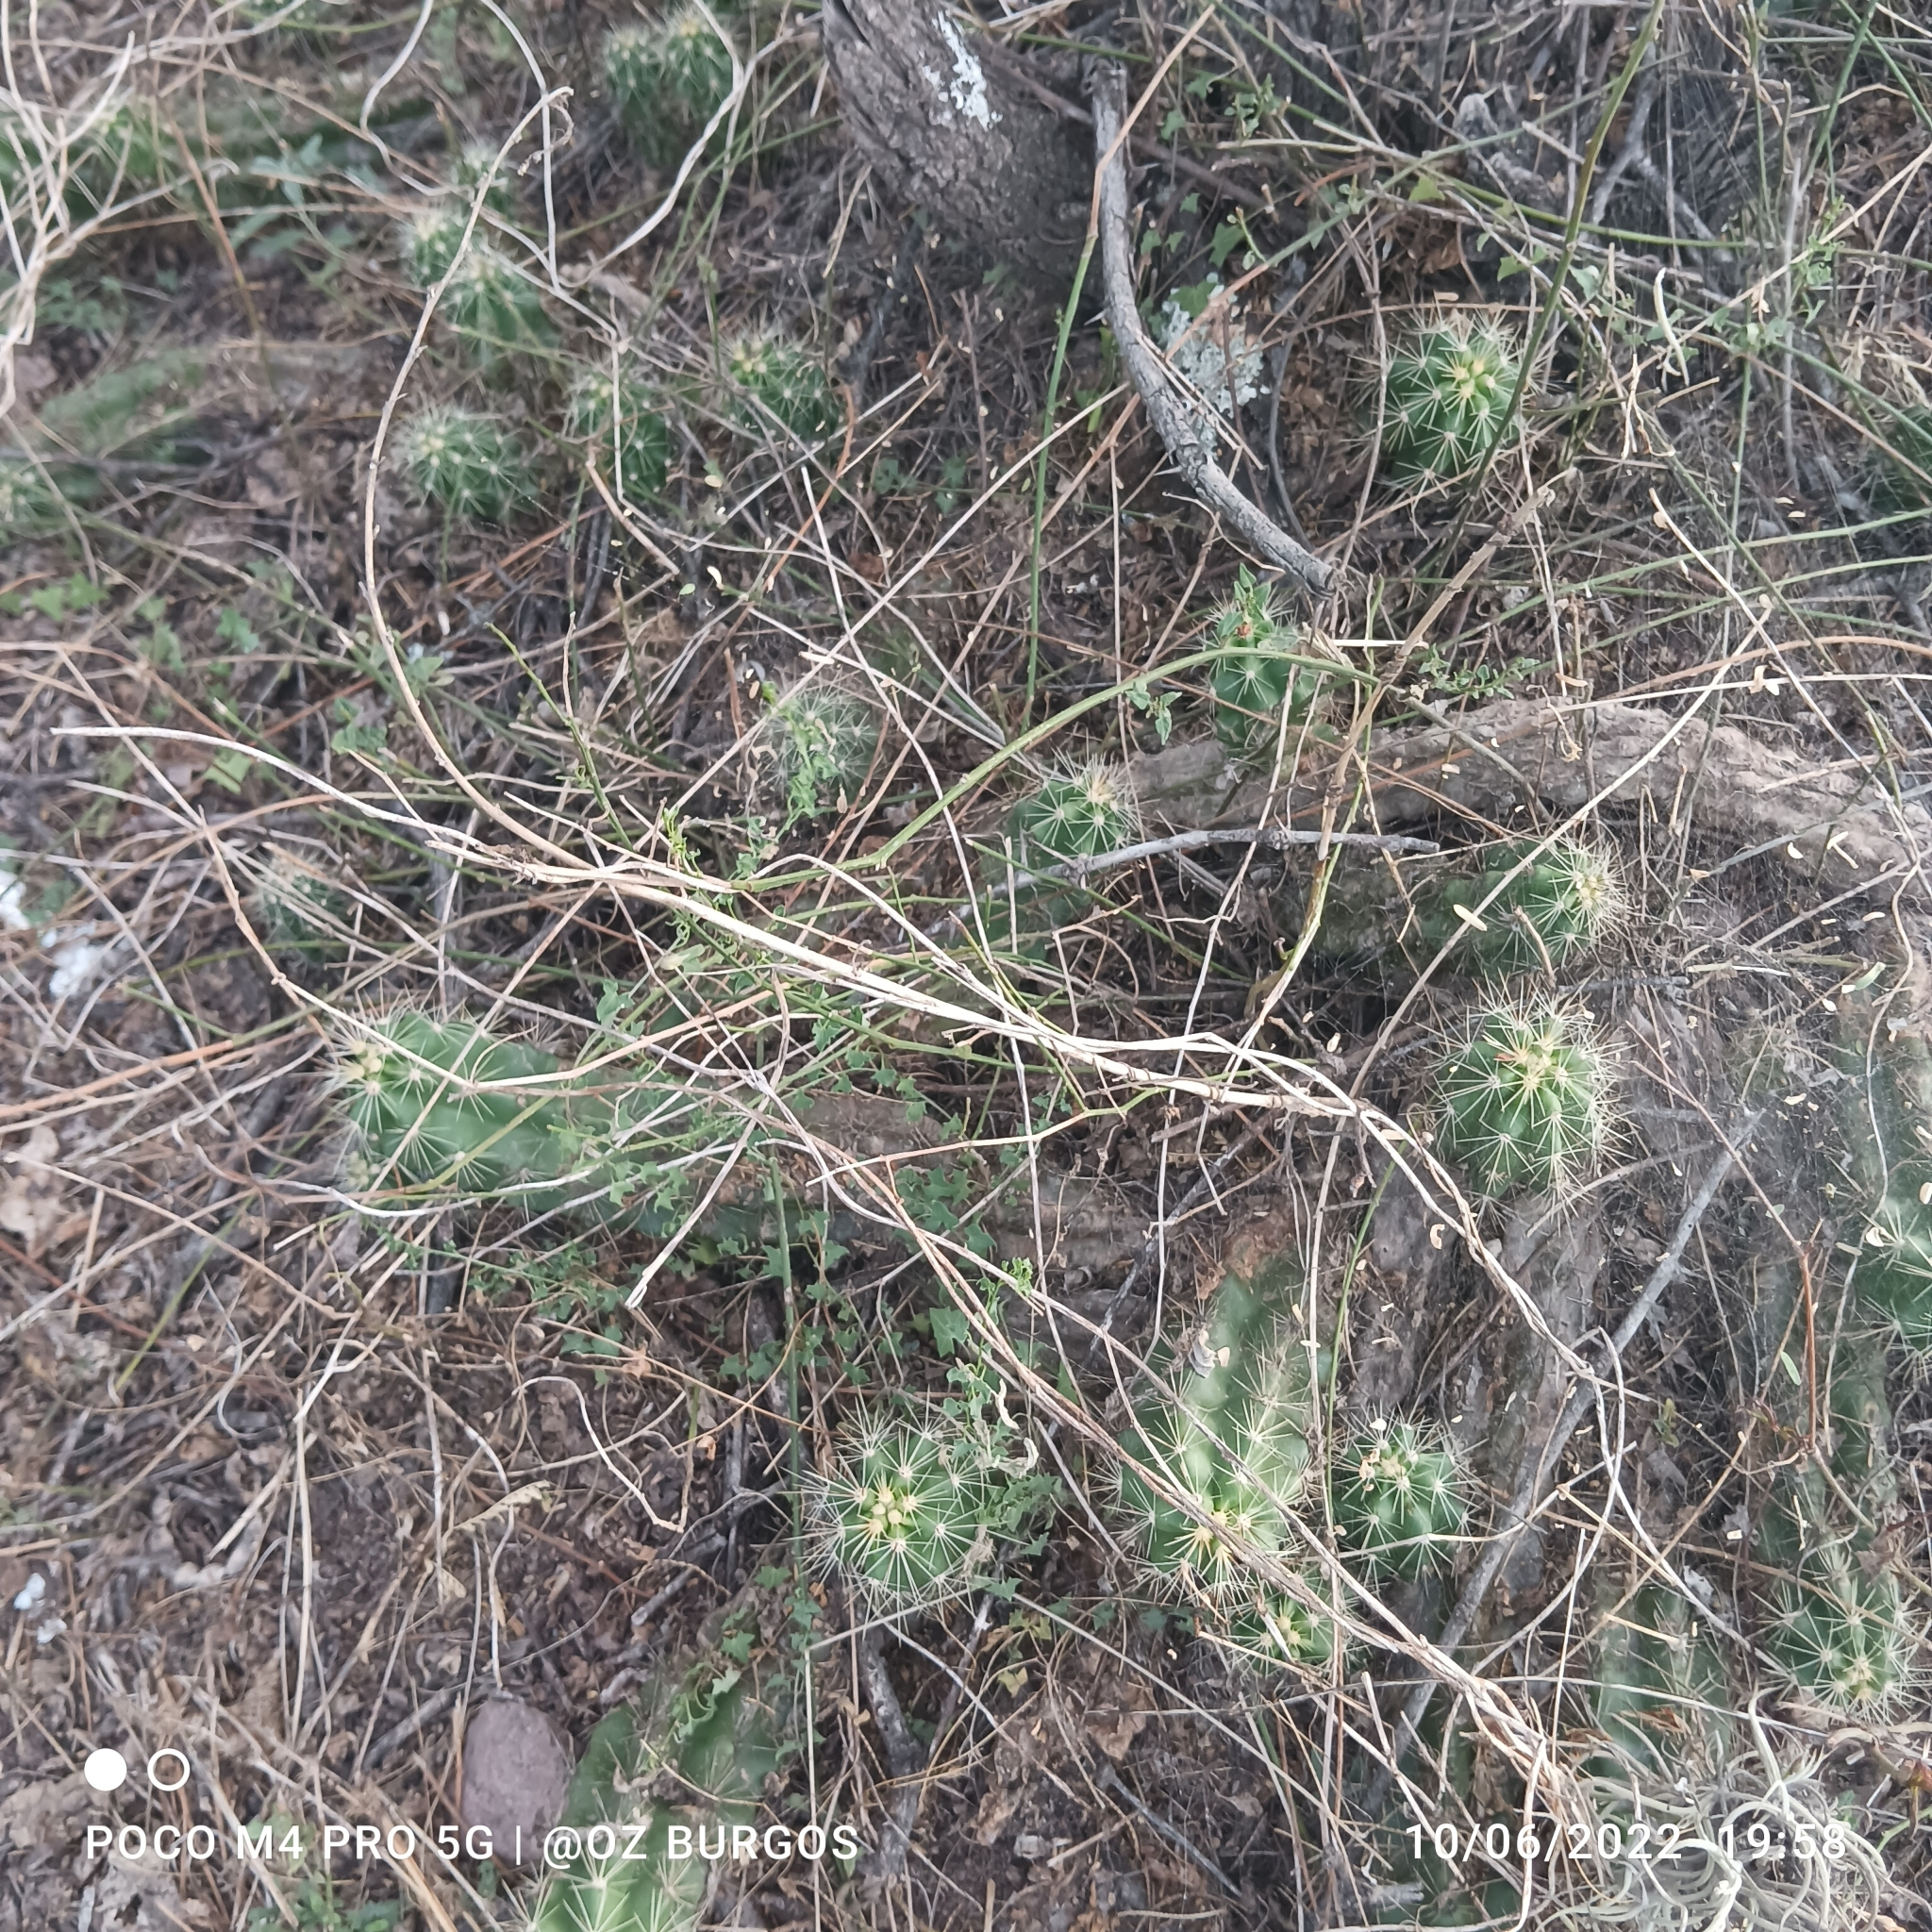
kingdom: Plantae
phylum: Tracheophyta
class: Magnoliopsida
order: Caryophyllales
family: Cactaceae
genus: Echinocereus
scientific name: Echinocereus cinerascens
